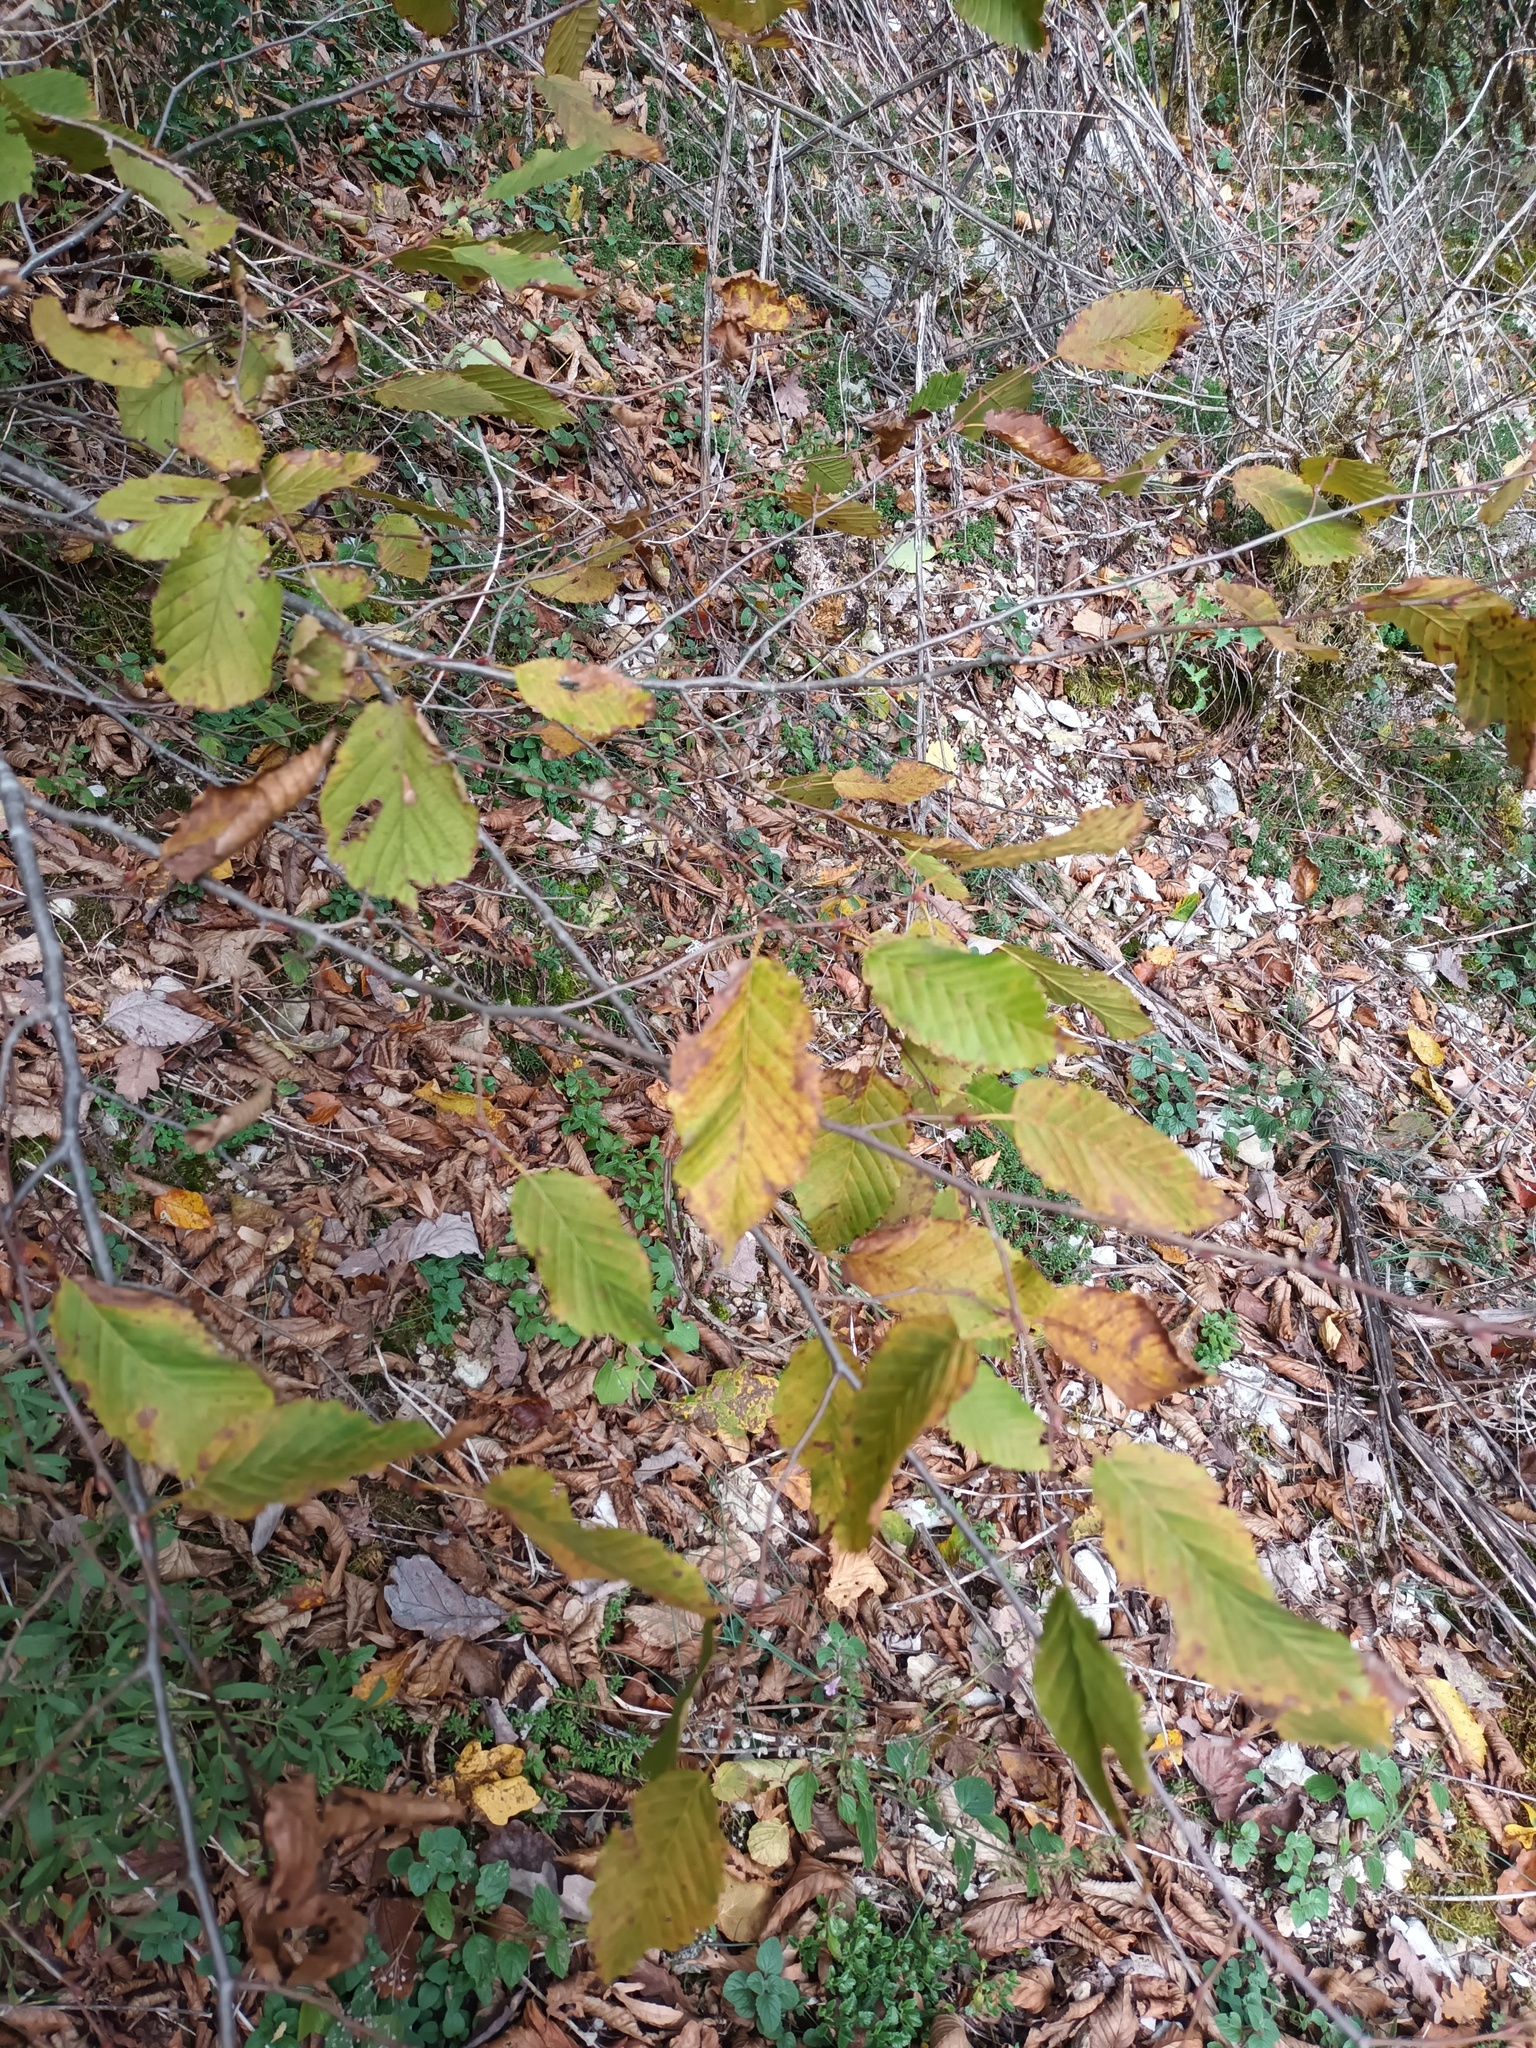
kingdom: Plantae
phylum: Tracheophyta
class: Magnoliopsida
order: Fagales
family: Betulaceae
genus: Carpinus
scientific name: Carpinus betulus
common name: Hornbeam
